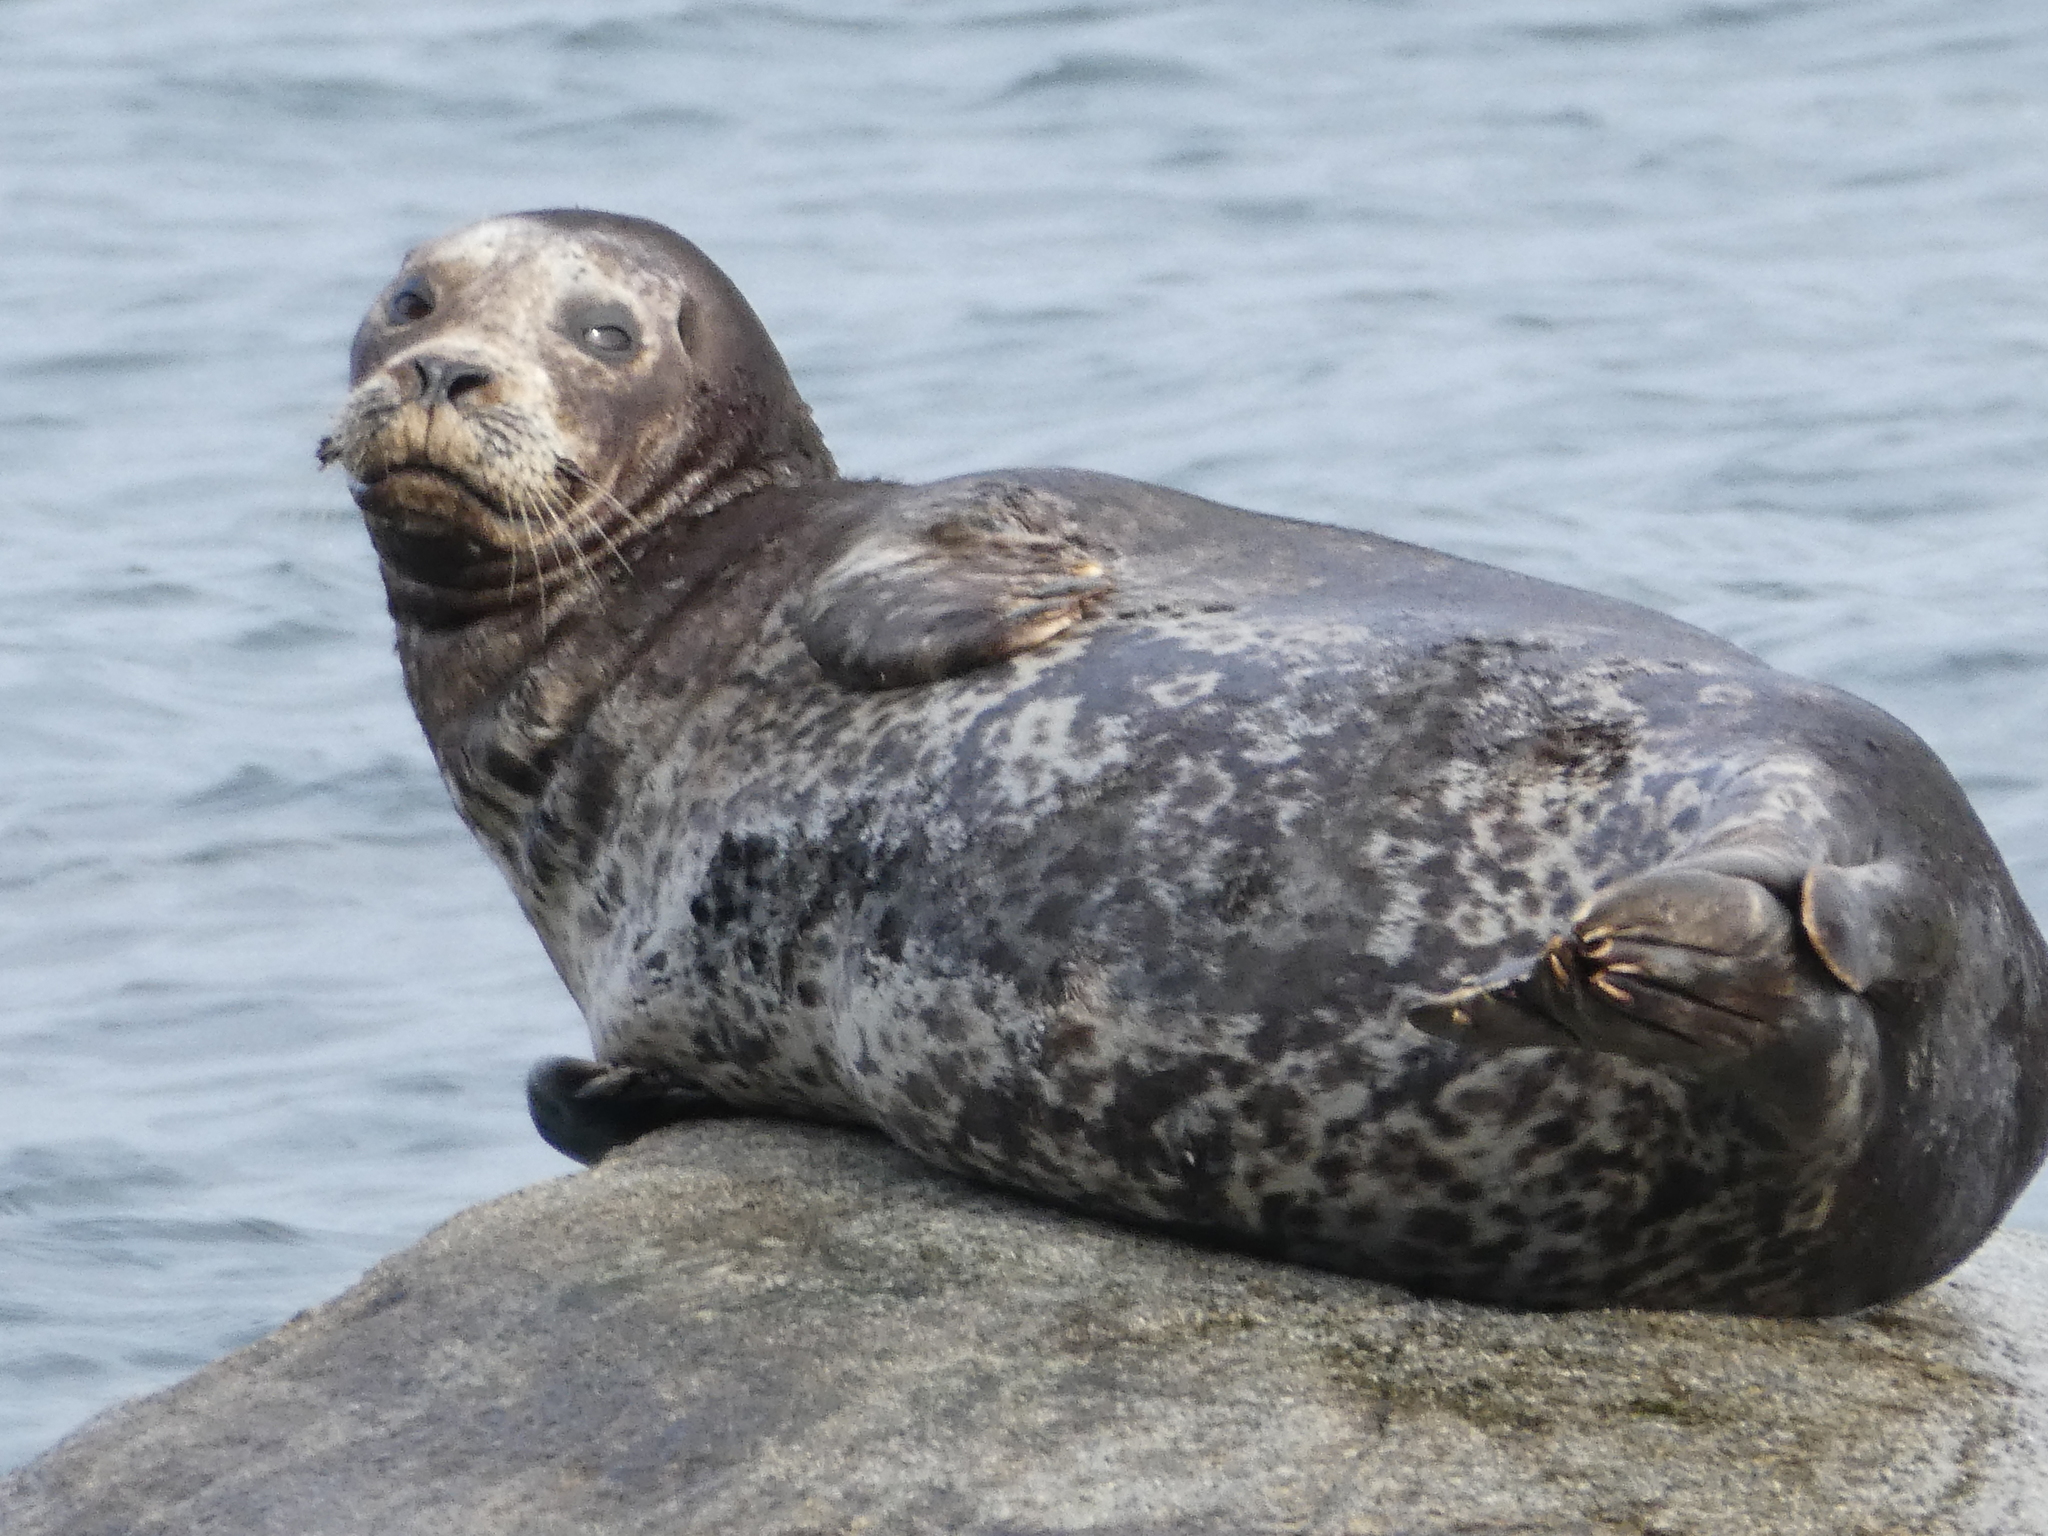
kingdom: Animalia
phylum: Chordata
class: Mammalia
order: Carnivora
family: Phocidae
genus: Phoca
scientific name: Phoca vitulina
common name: Harbor seal
